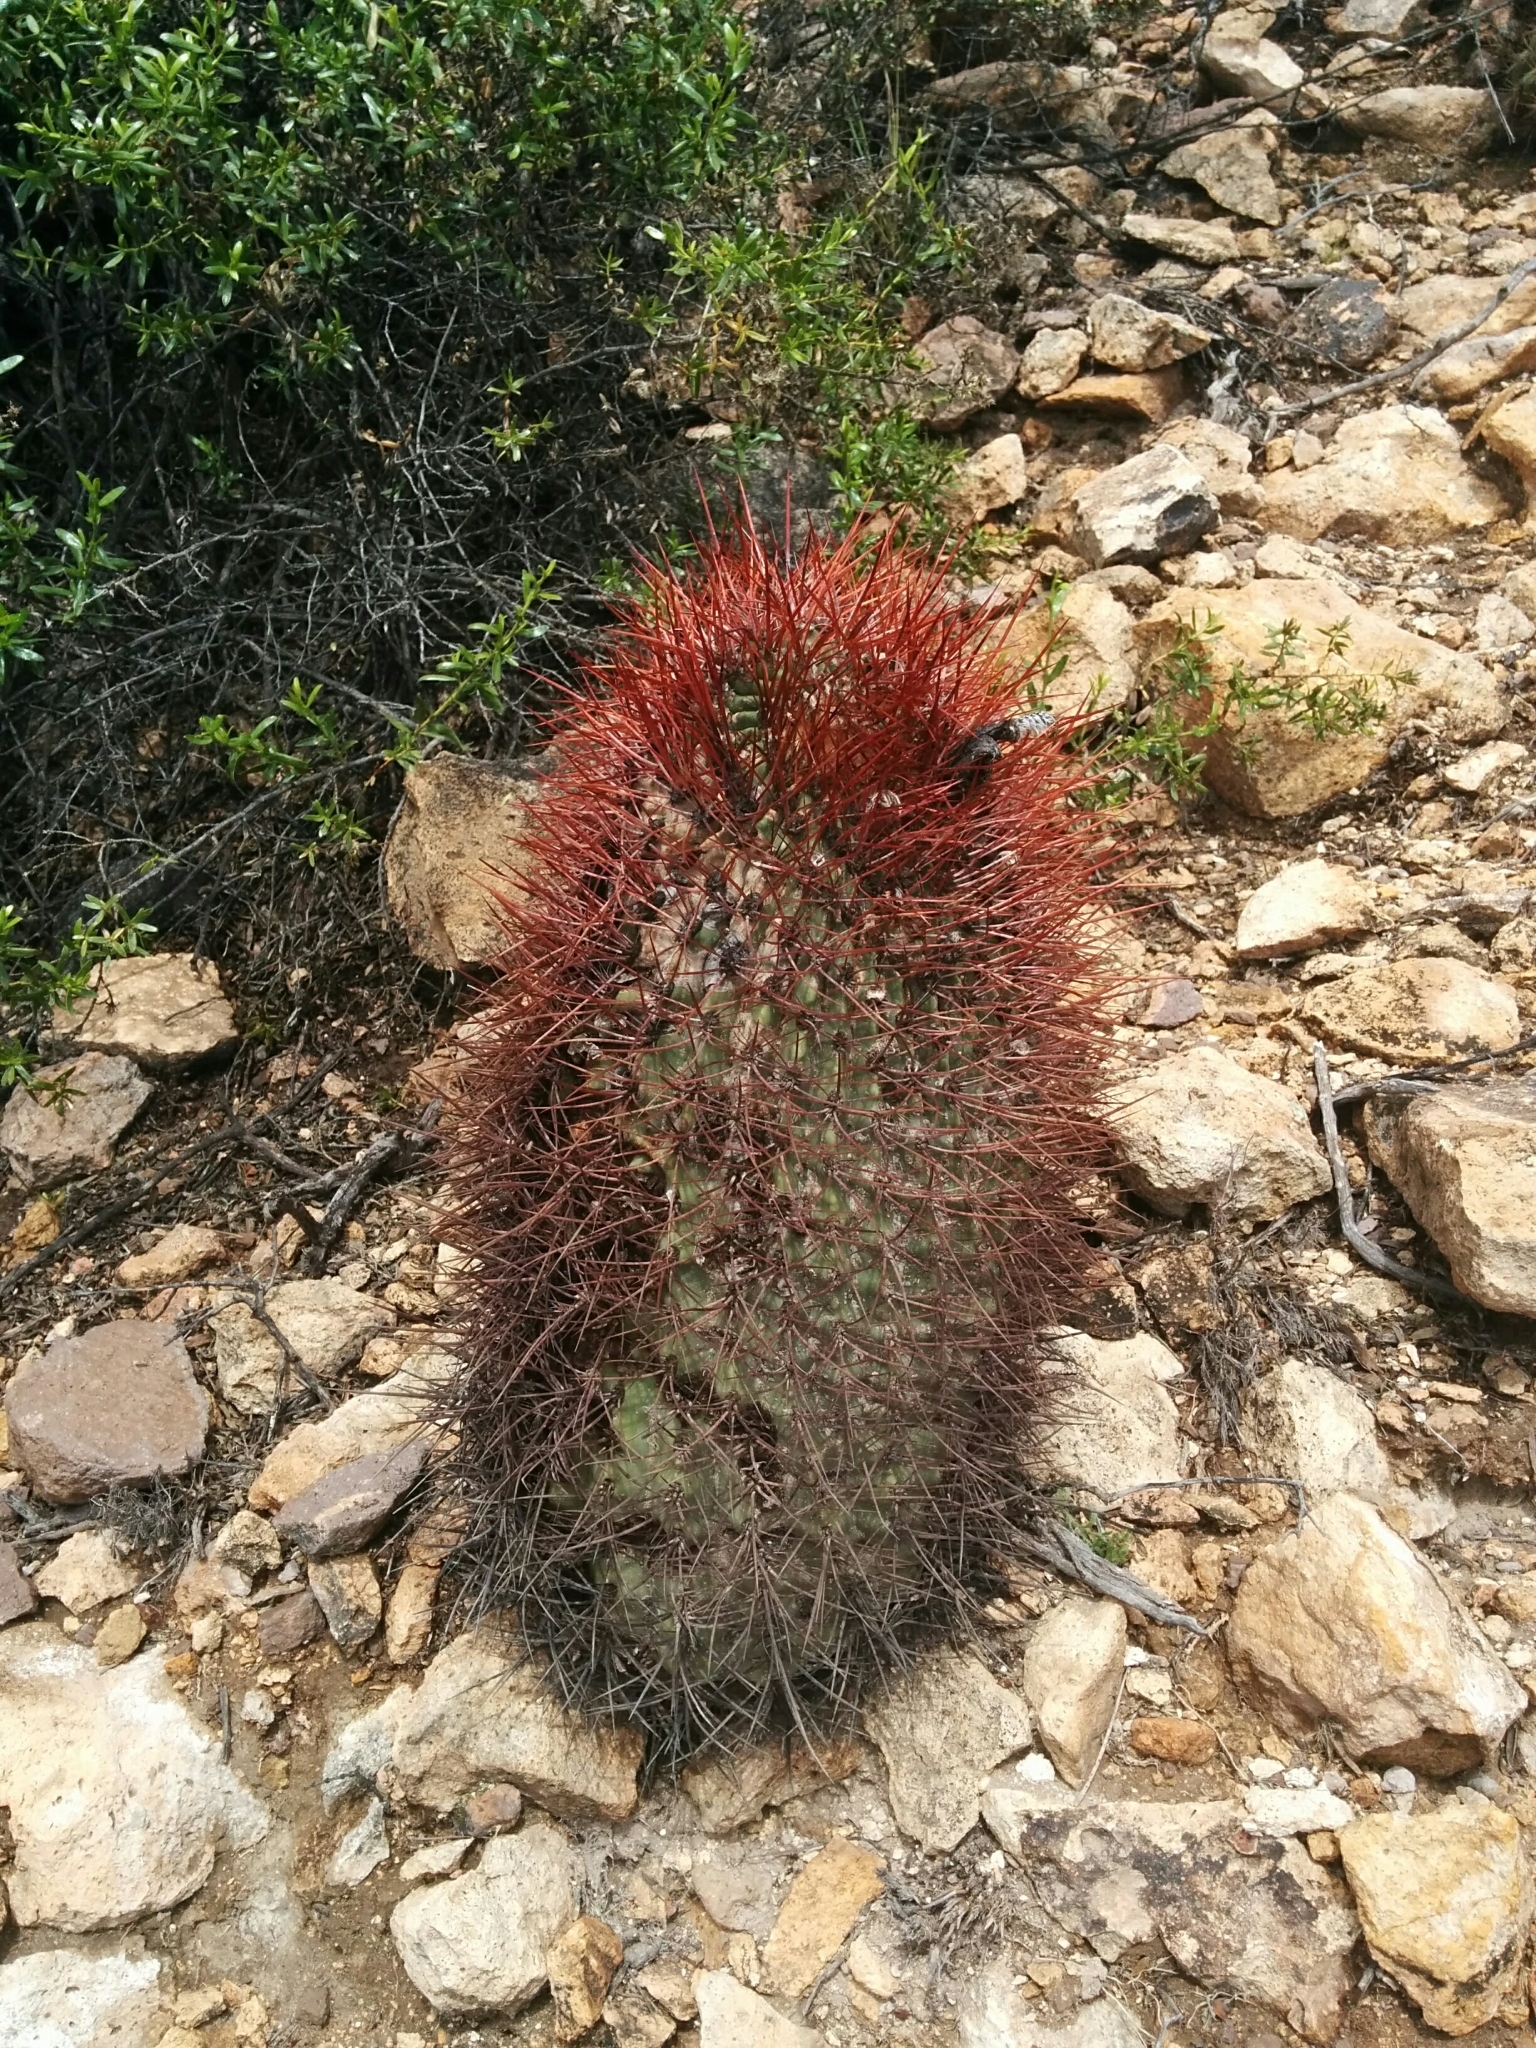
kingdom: Plantae
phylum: Tracheophyta
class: Magnoliopsida
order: Caryophyllales
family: Cactaceae
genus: Denmoza
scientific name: Denmoza rhodacantha
